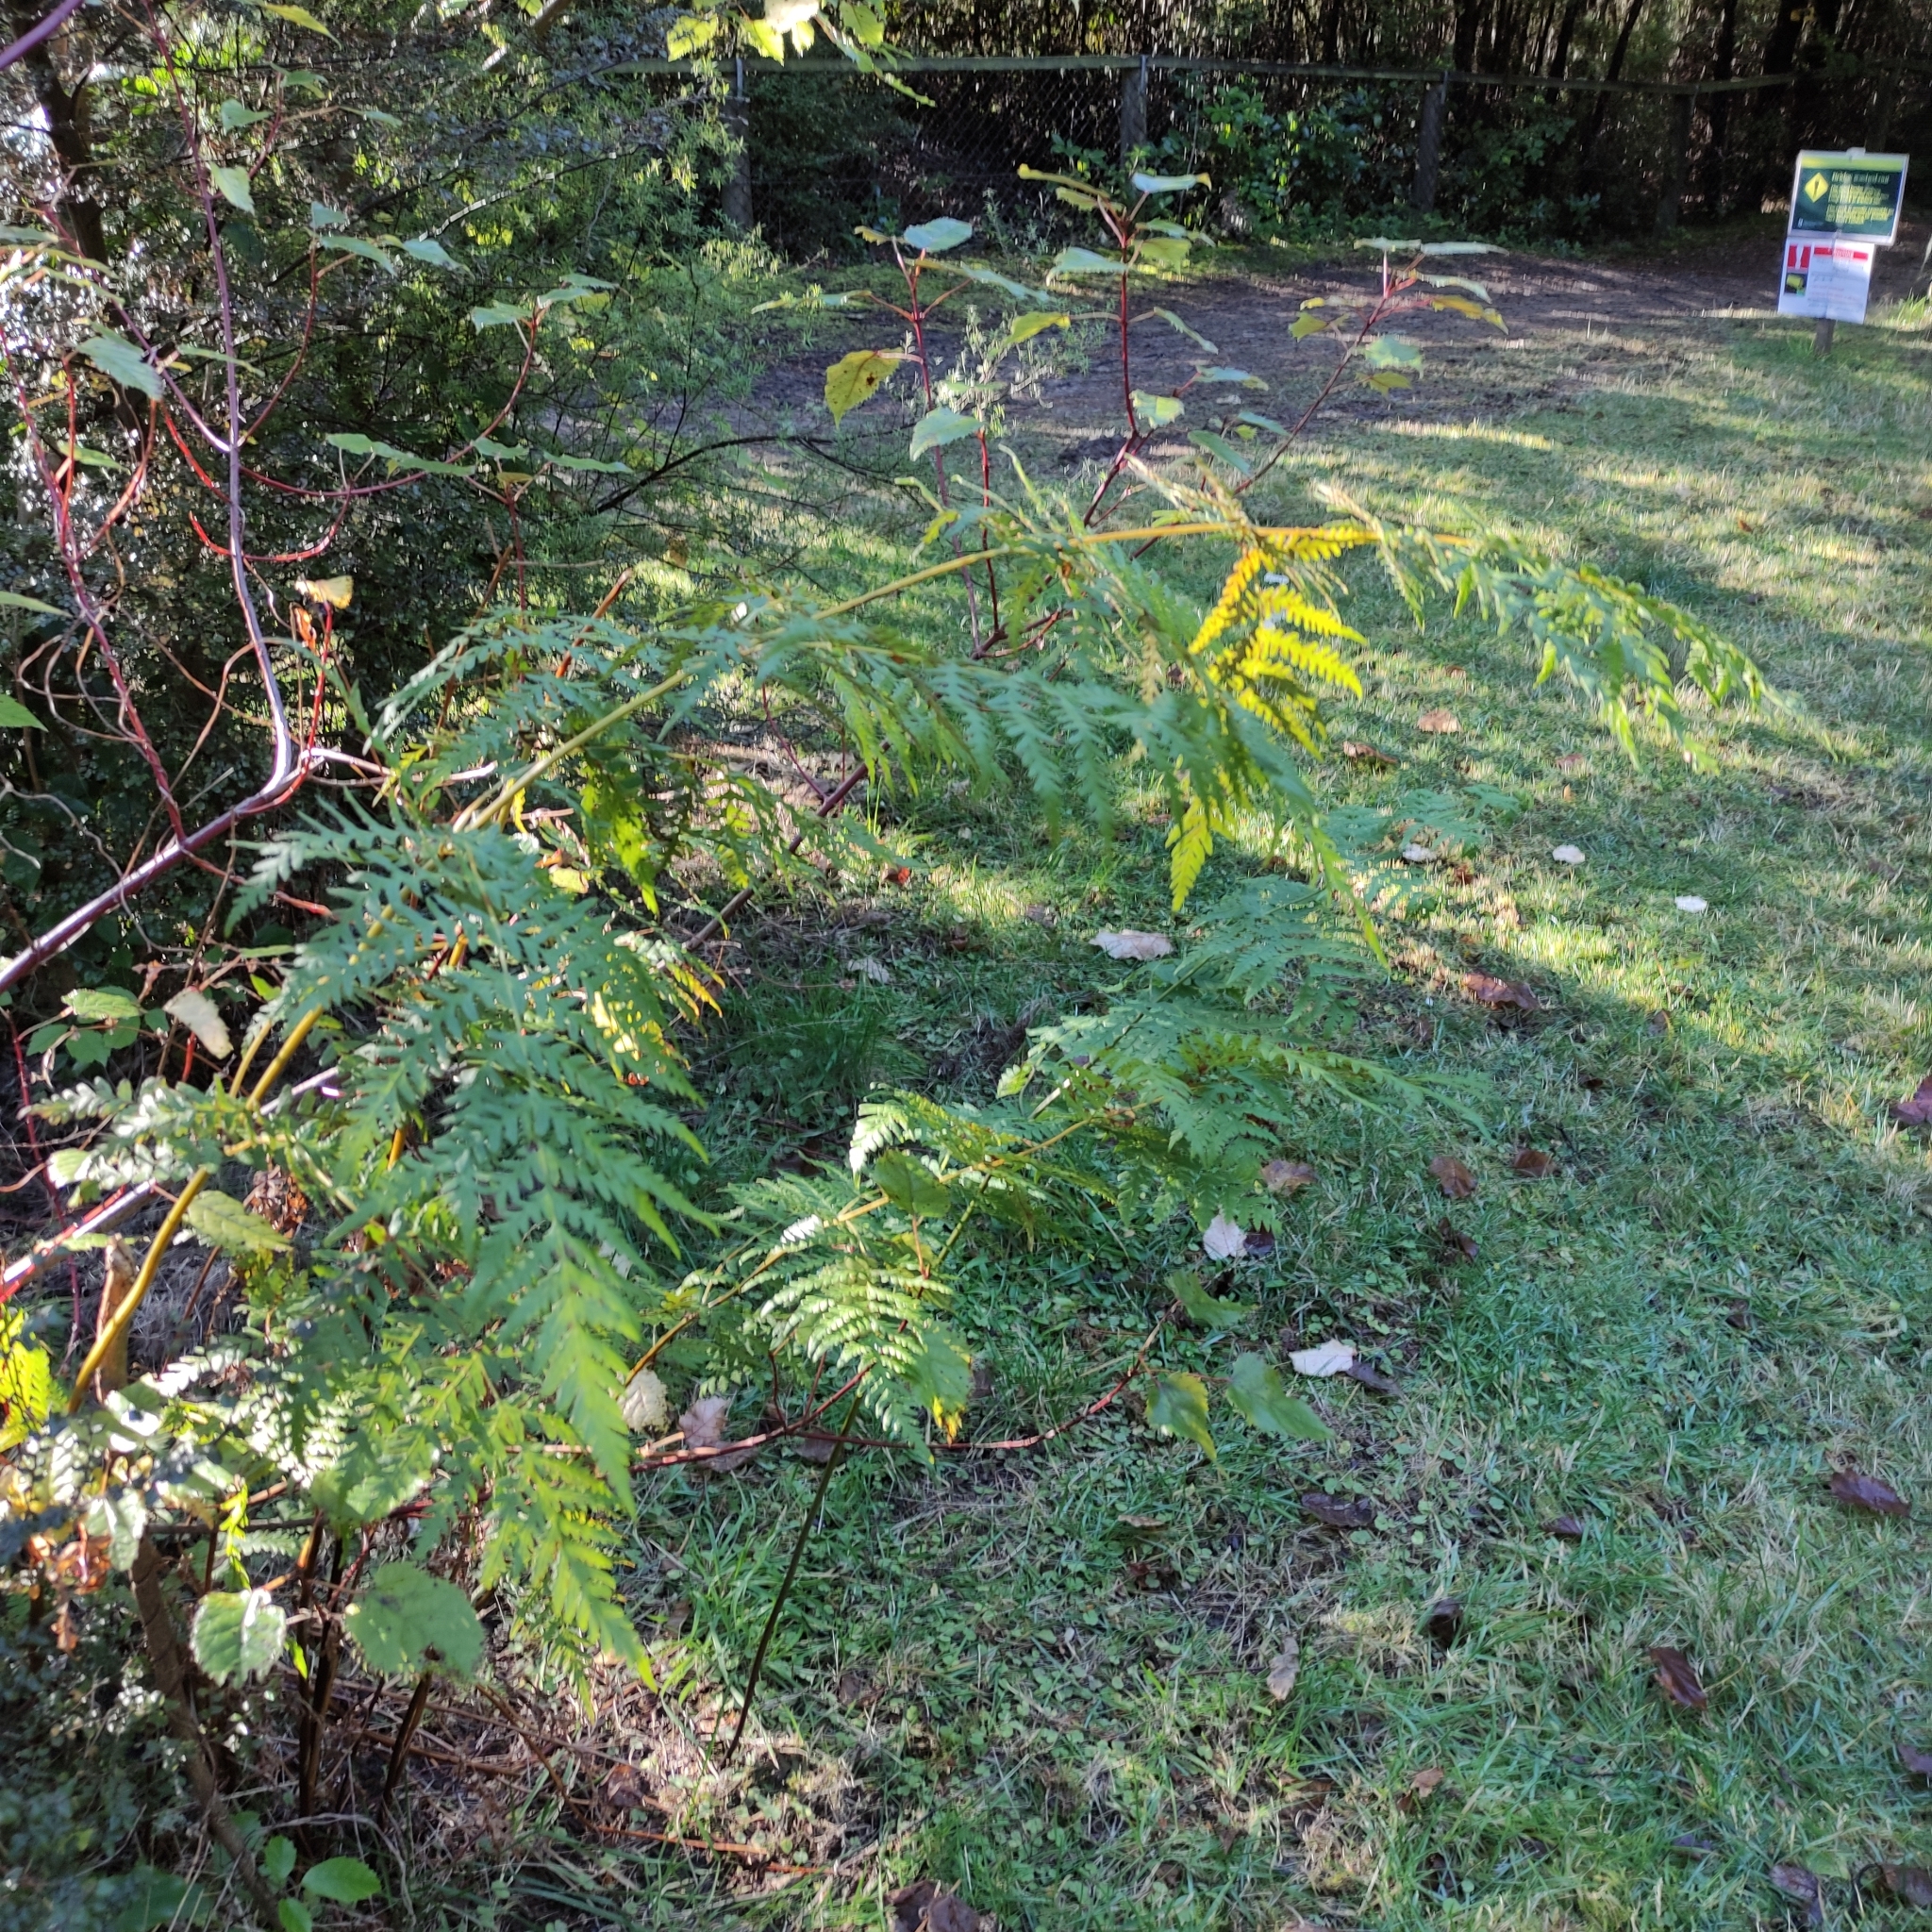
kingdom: Plantae
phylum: Tracheophyta
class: Polypodiopsida
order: Polypodiales
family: Dennstaedtiaceae
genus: Histiopteris
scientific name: Histiopteris incisa
